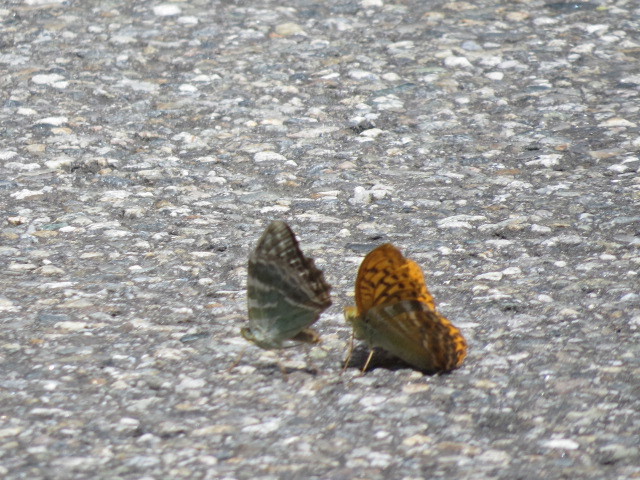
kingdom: Animalia
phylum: Arthropoda
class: Insecta
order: Lepidoptera
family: Nymphalidae
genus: Argynnis
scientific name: Argynnis paphia
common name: Silver-washed fritillary
